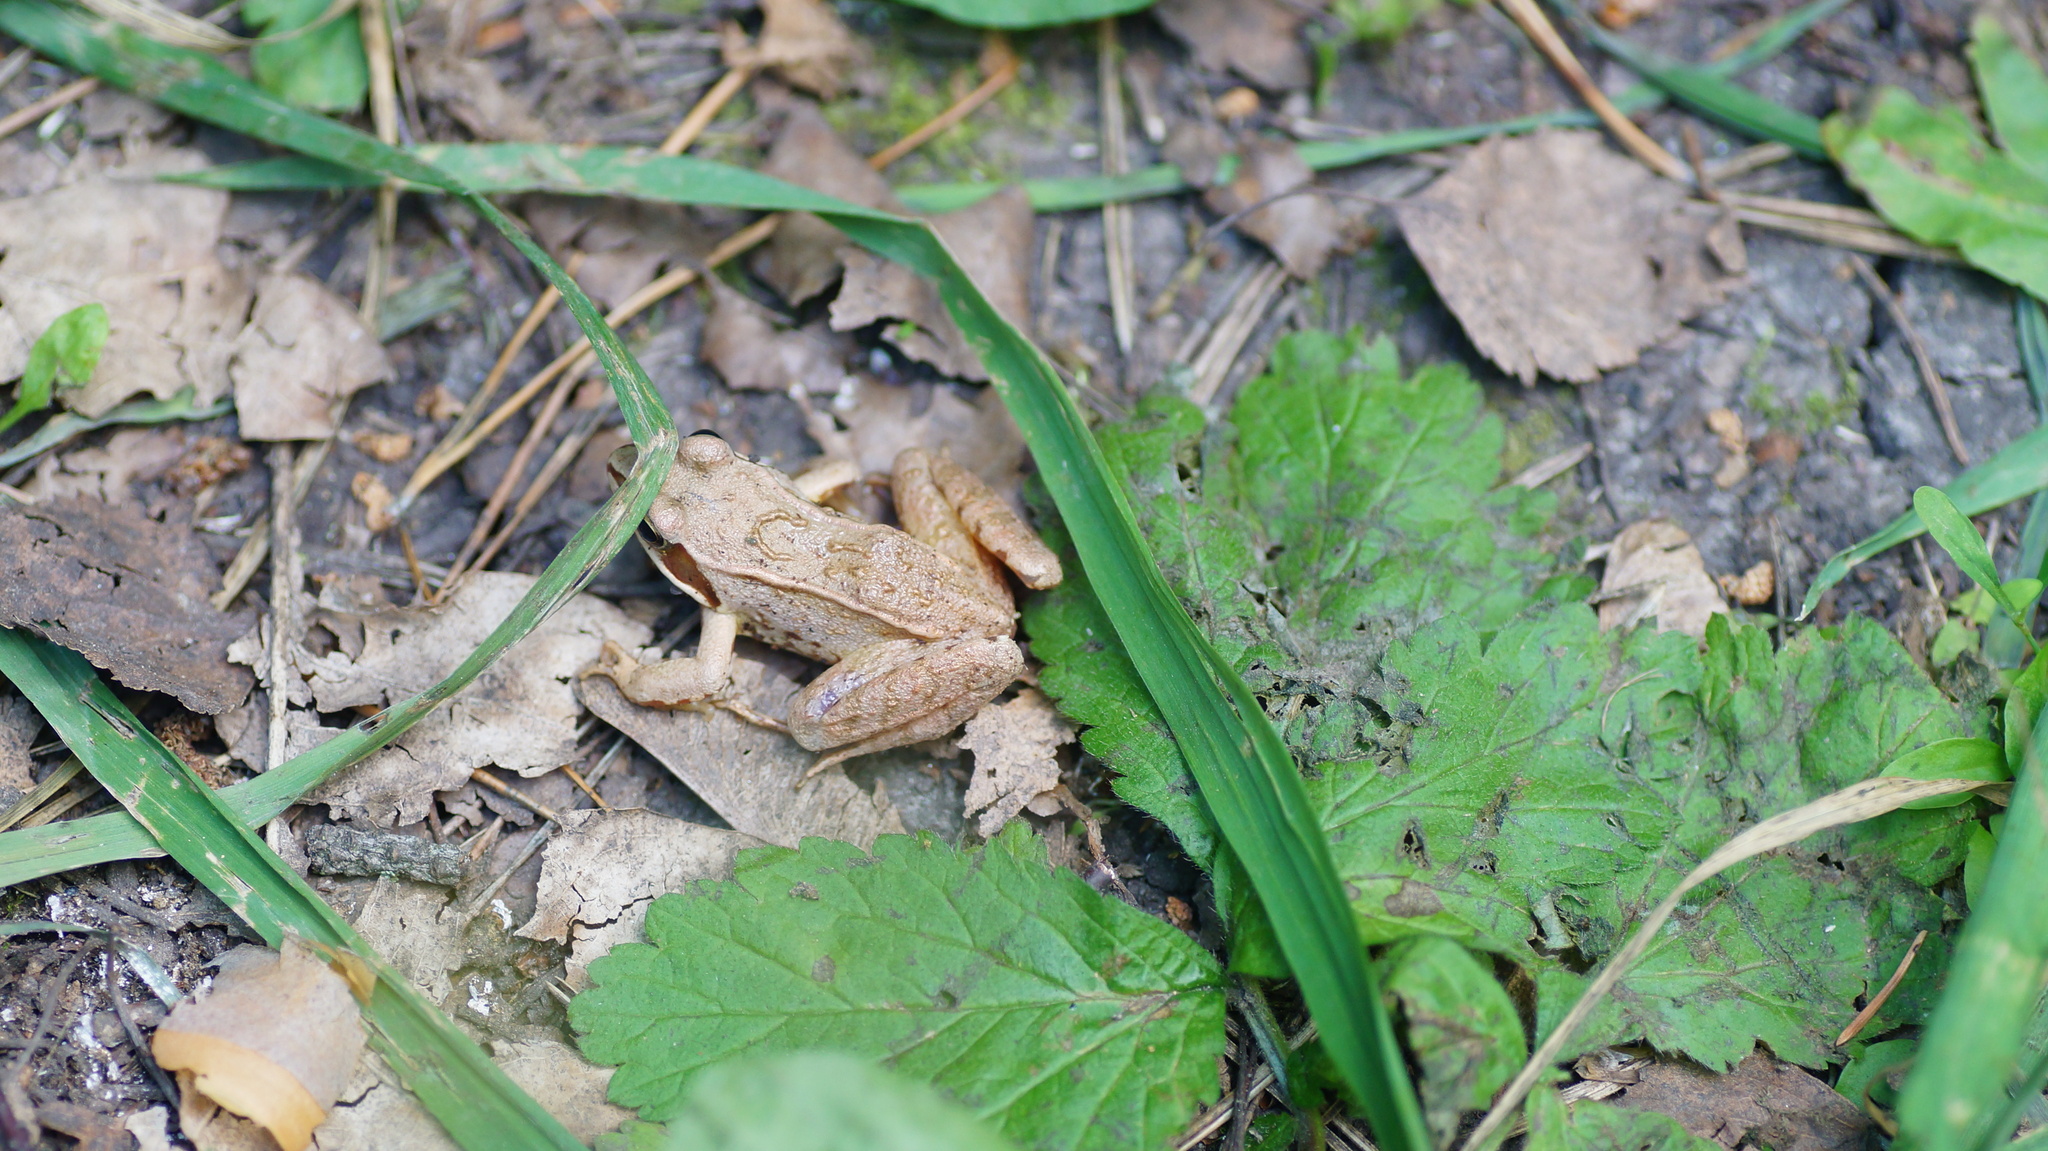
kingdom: Animalia
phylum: Chordata
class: Amphibia
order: Anura
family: Ranidae
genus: Rana
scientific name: Rana arvalis
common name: Moor frog
